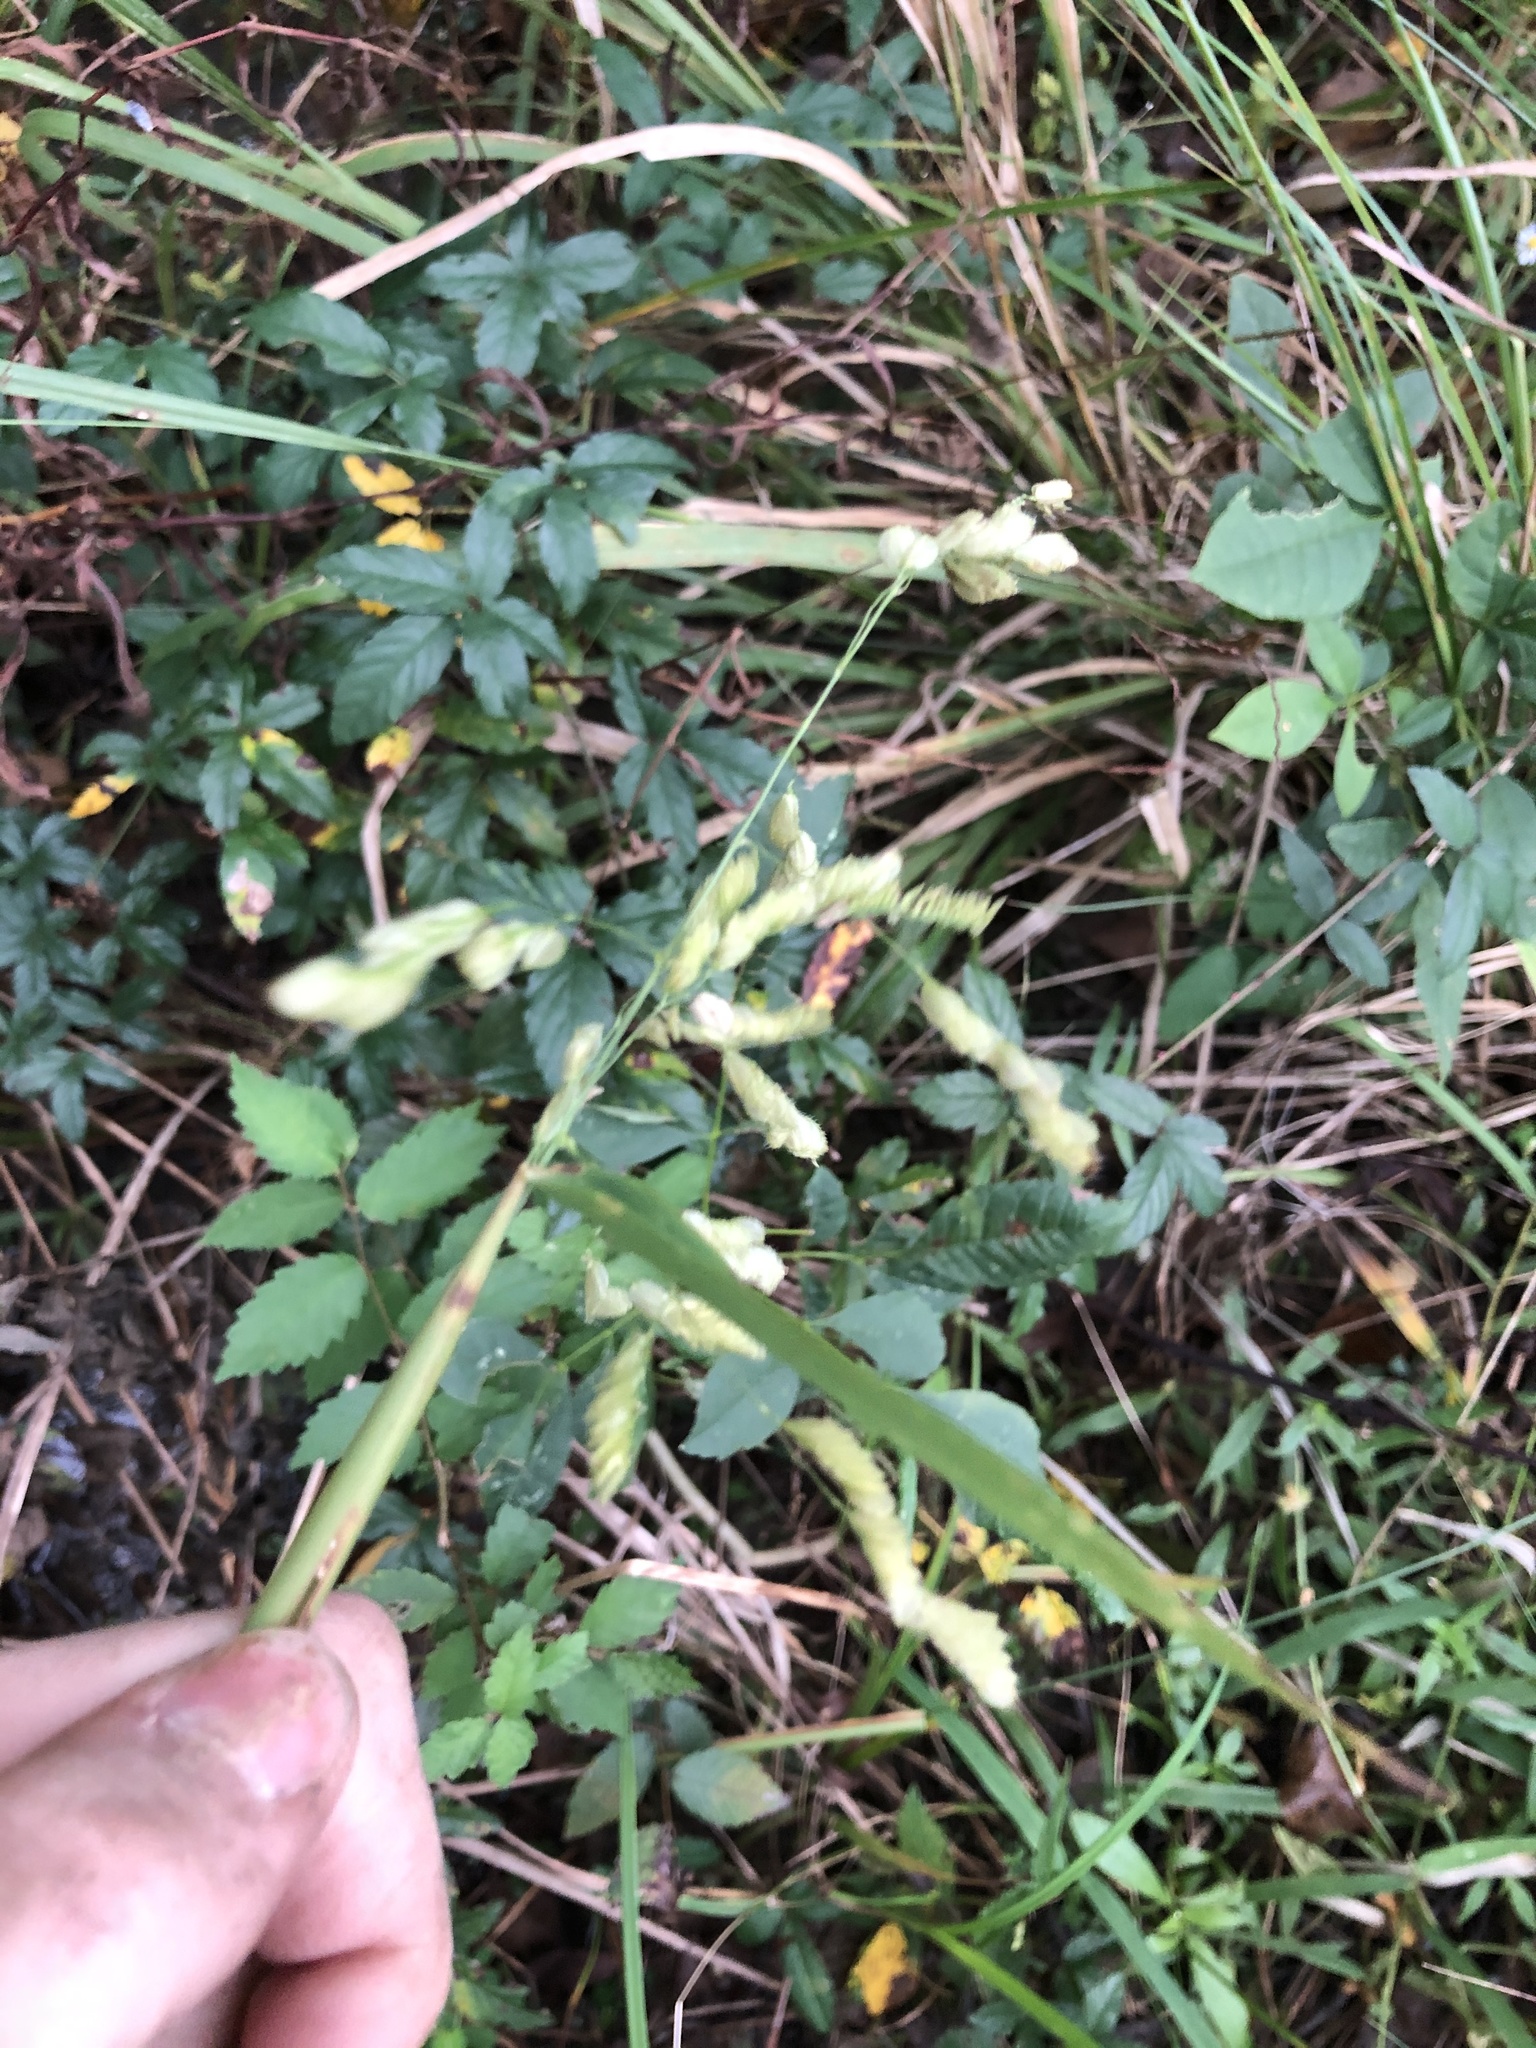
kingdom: Plantae
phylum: Tracheophyta
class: Liliopsida
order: Poales
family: Poaceae
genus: Leersia
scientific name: Leersia lenticularis
